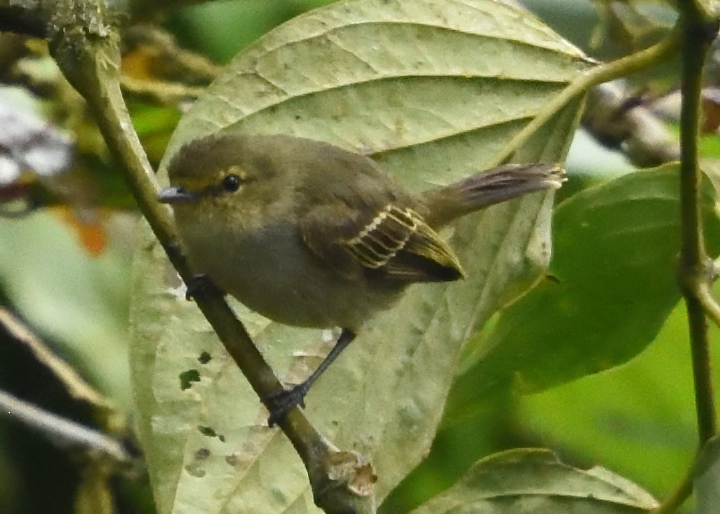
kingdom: Animalia
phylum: Chordata
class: Aves
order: Passeriformes
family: Tyrannidae
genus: Zimmerius
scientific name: Zimmerius chrysops
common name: Golden-faced tyrannulet
